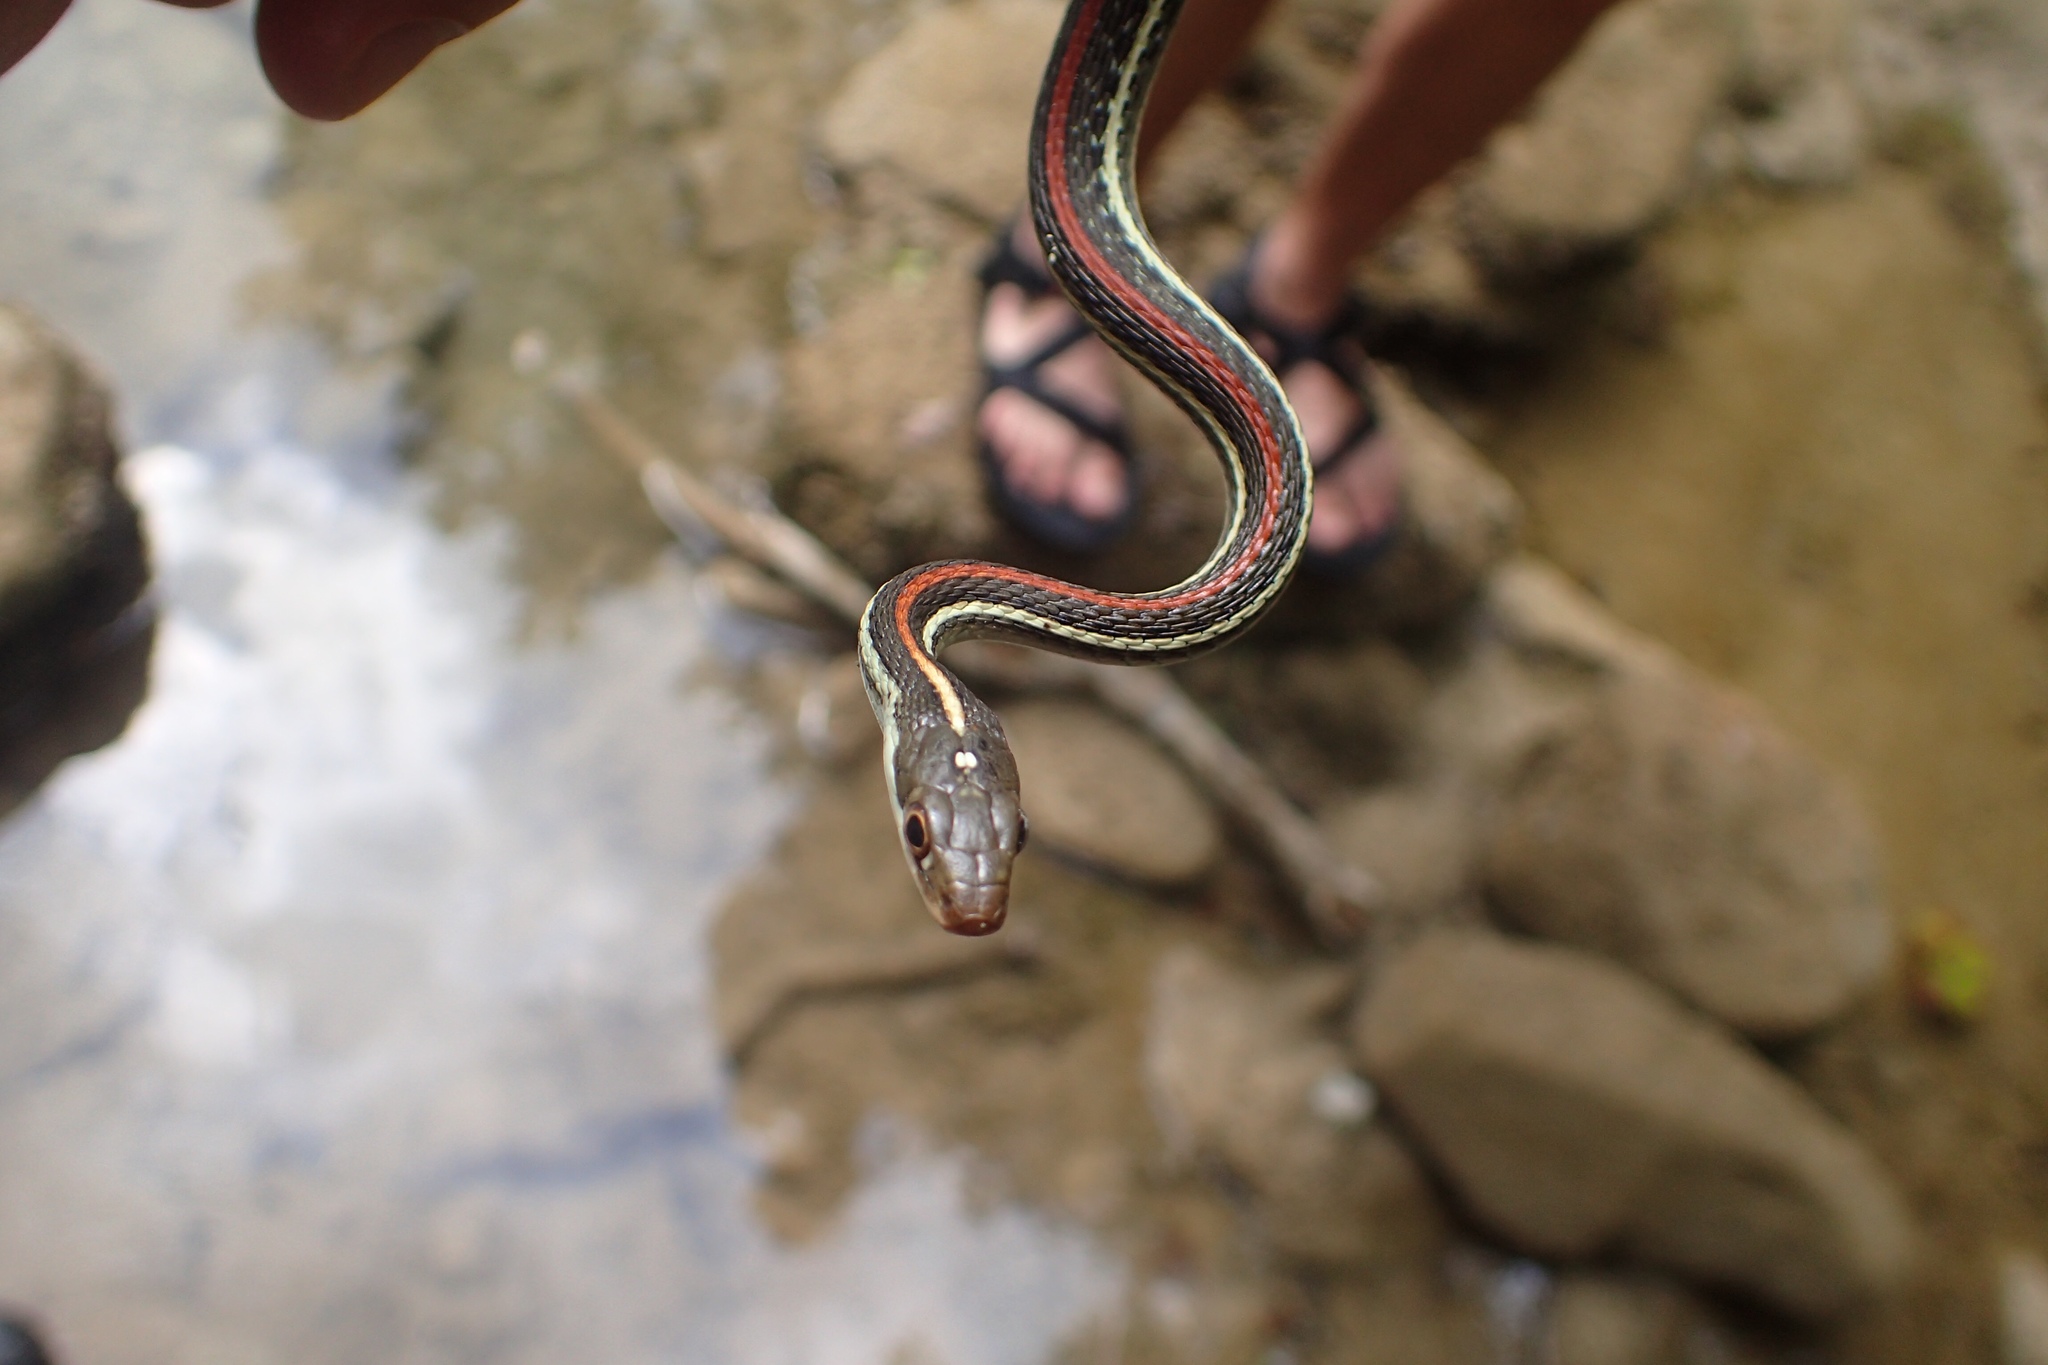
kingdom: Animalia
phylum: Chordata
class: Squamata
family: Colubridae
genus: Thamnophis
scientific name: Thamnophis proximus
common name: Western ribbon snake
